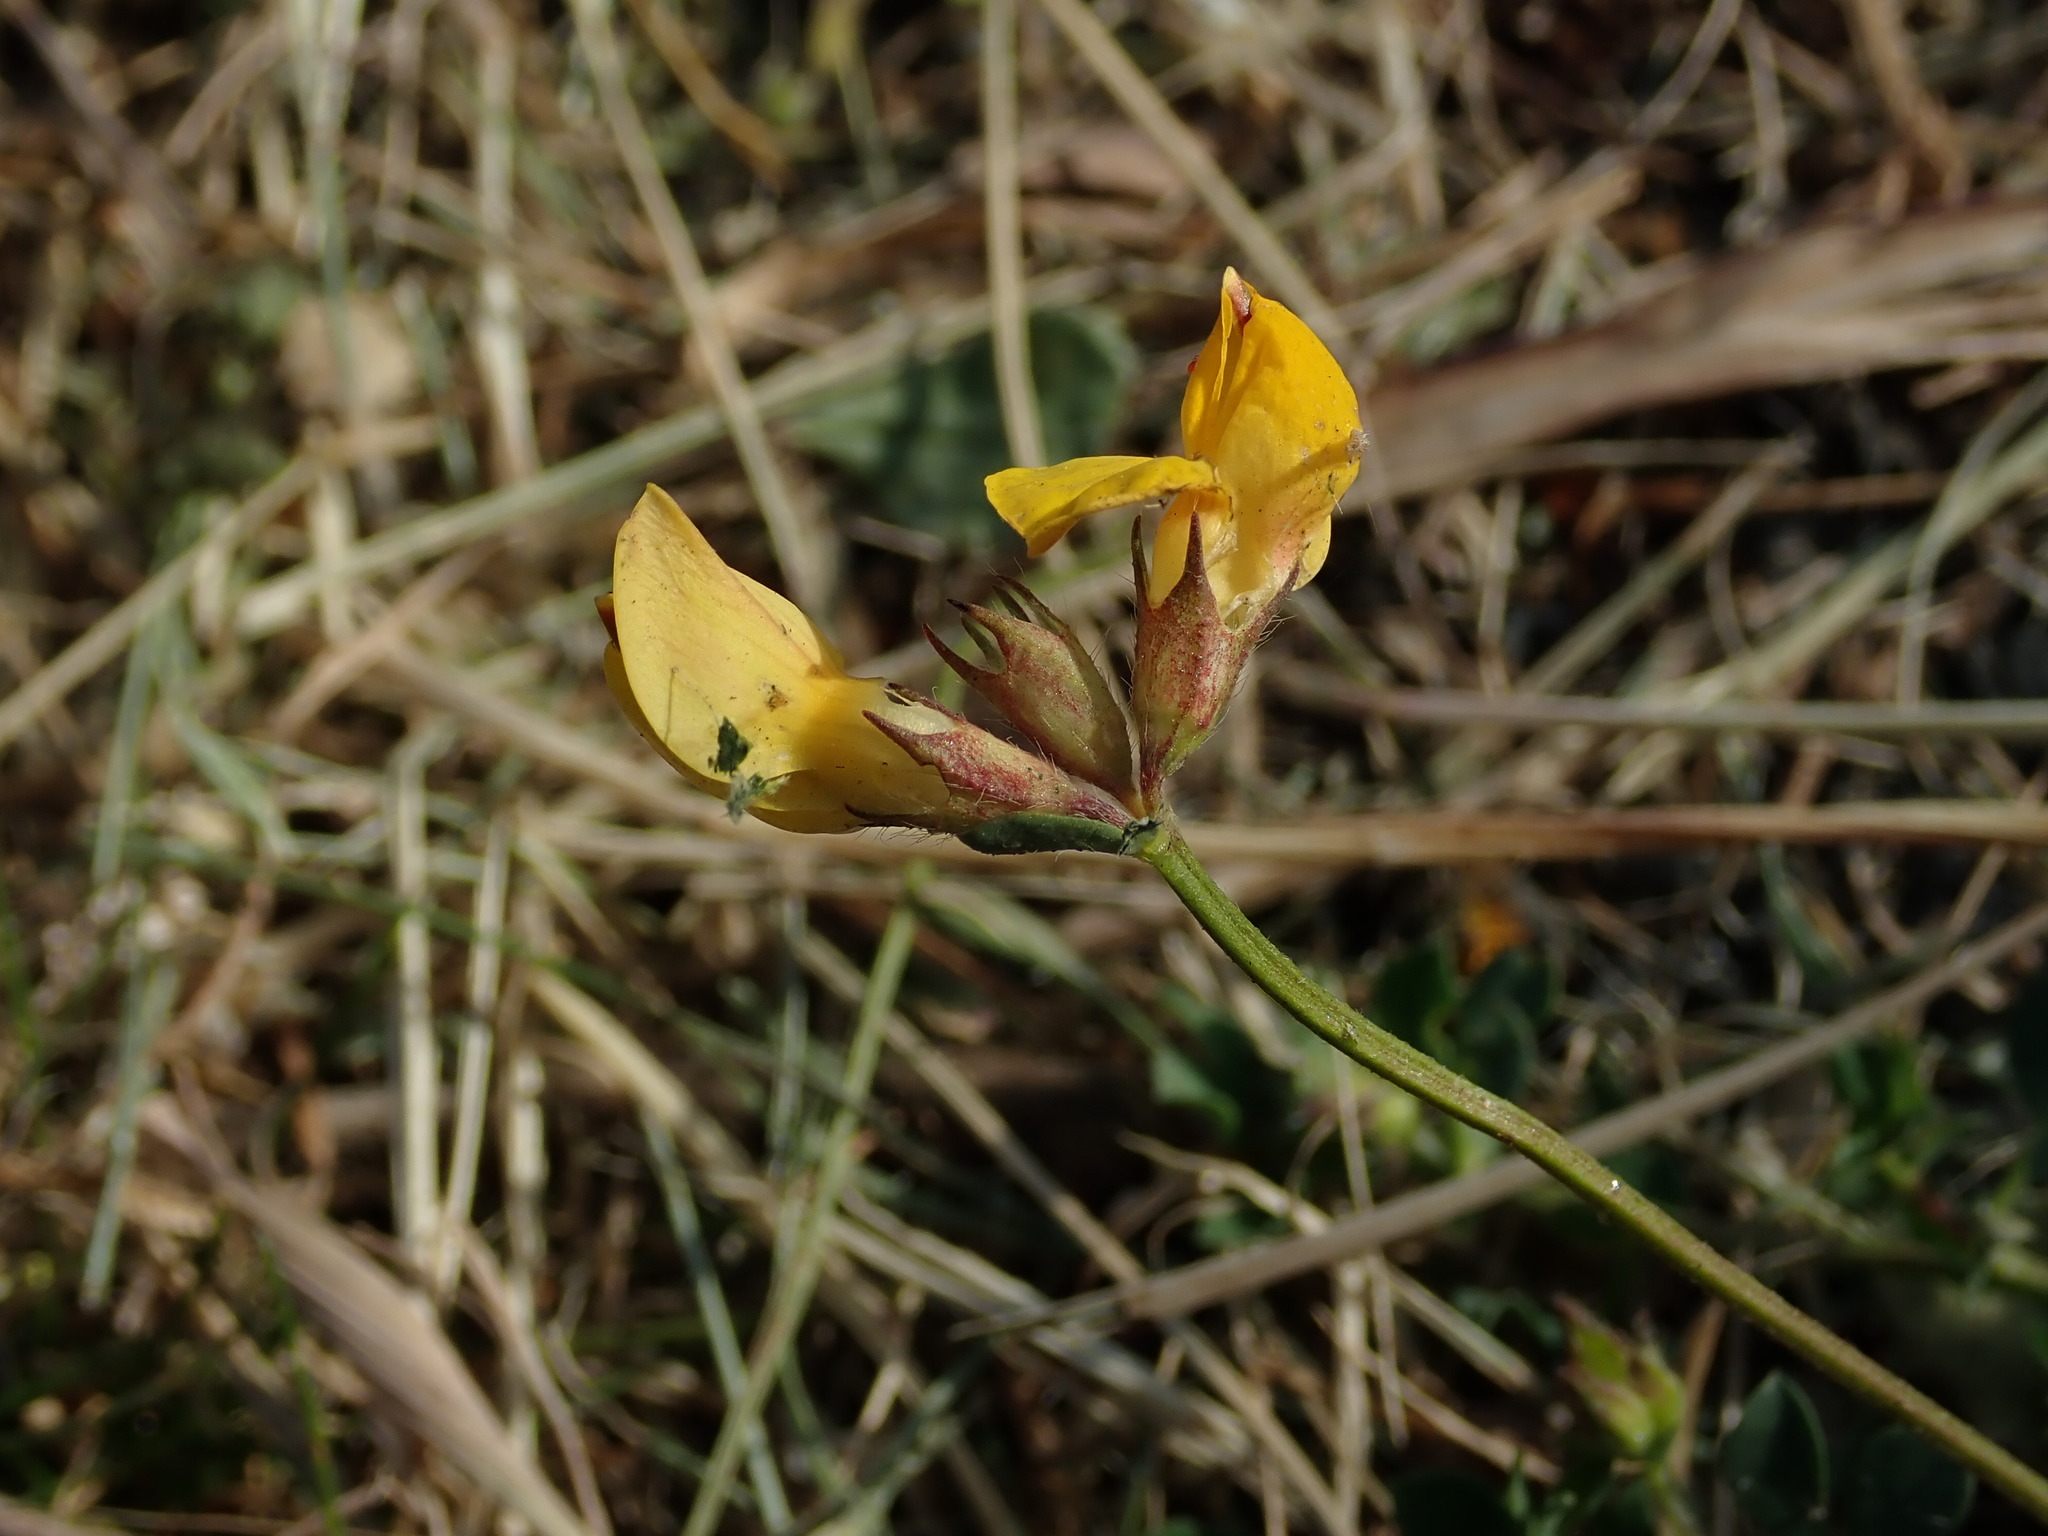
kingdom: Plantae
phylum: Tracheophyta
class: Magnoliopsida
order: Fabales
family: Fabaceae
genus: Lotus
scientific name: Lotus corniculatus
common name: Common bird's-foot-trefoil
